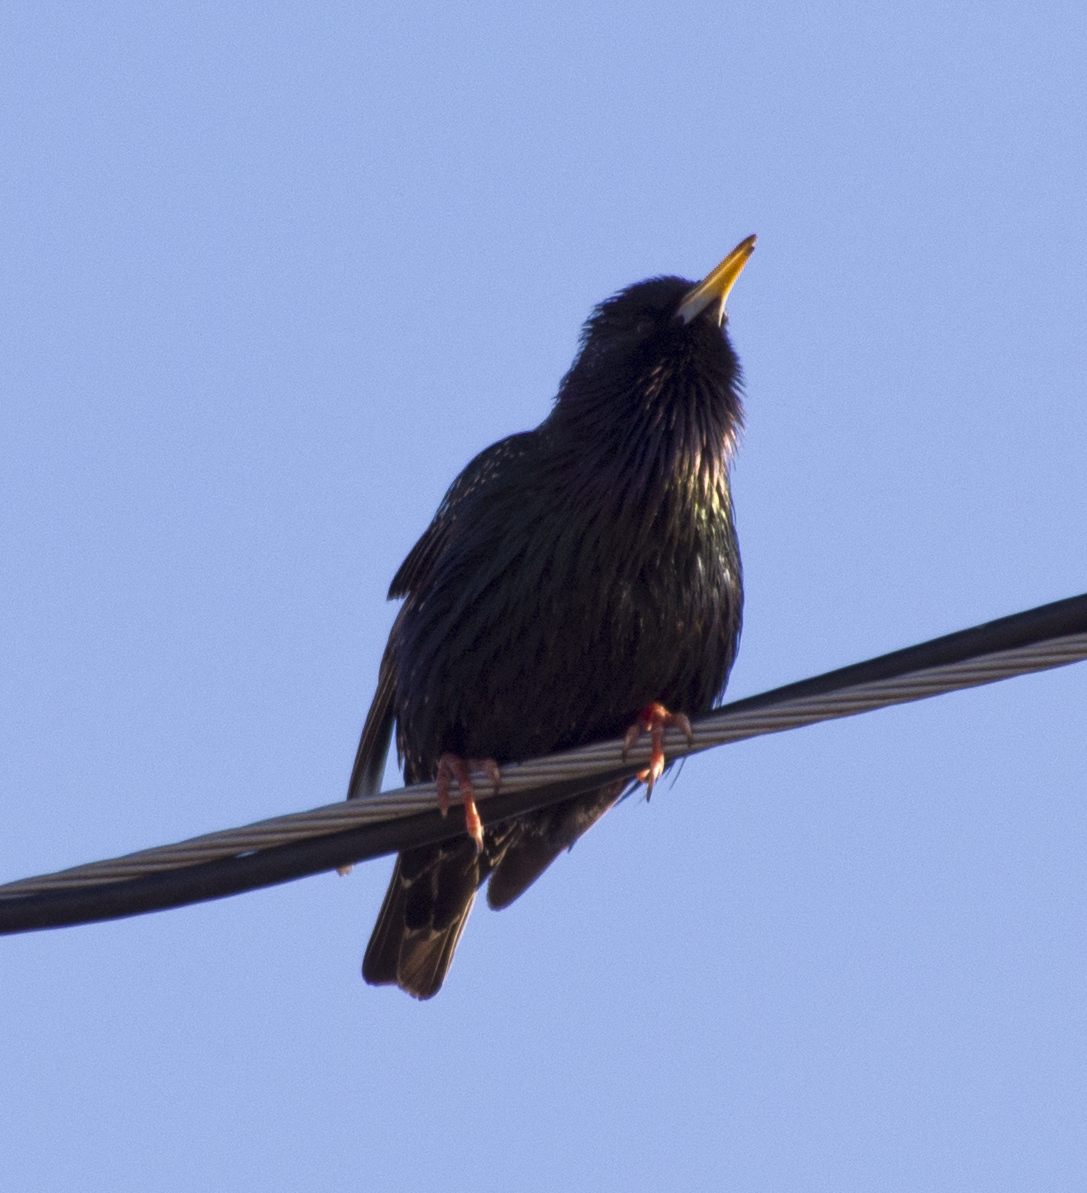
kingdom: Animalia
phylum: Chordata
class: Aves
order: Passeriformes
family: Sturnidae
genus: Sturnus
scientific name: Sturnus vulgaris
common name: Common starling
